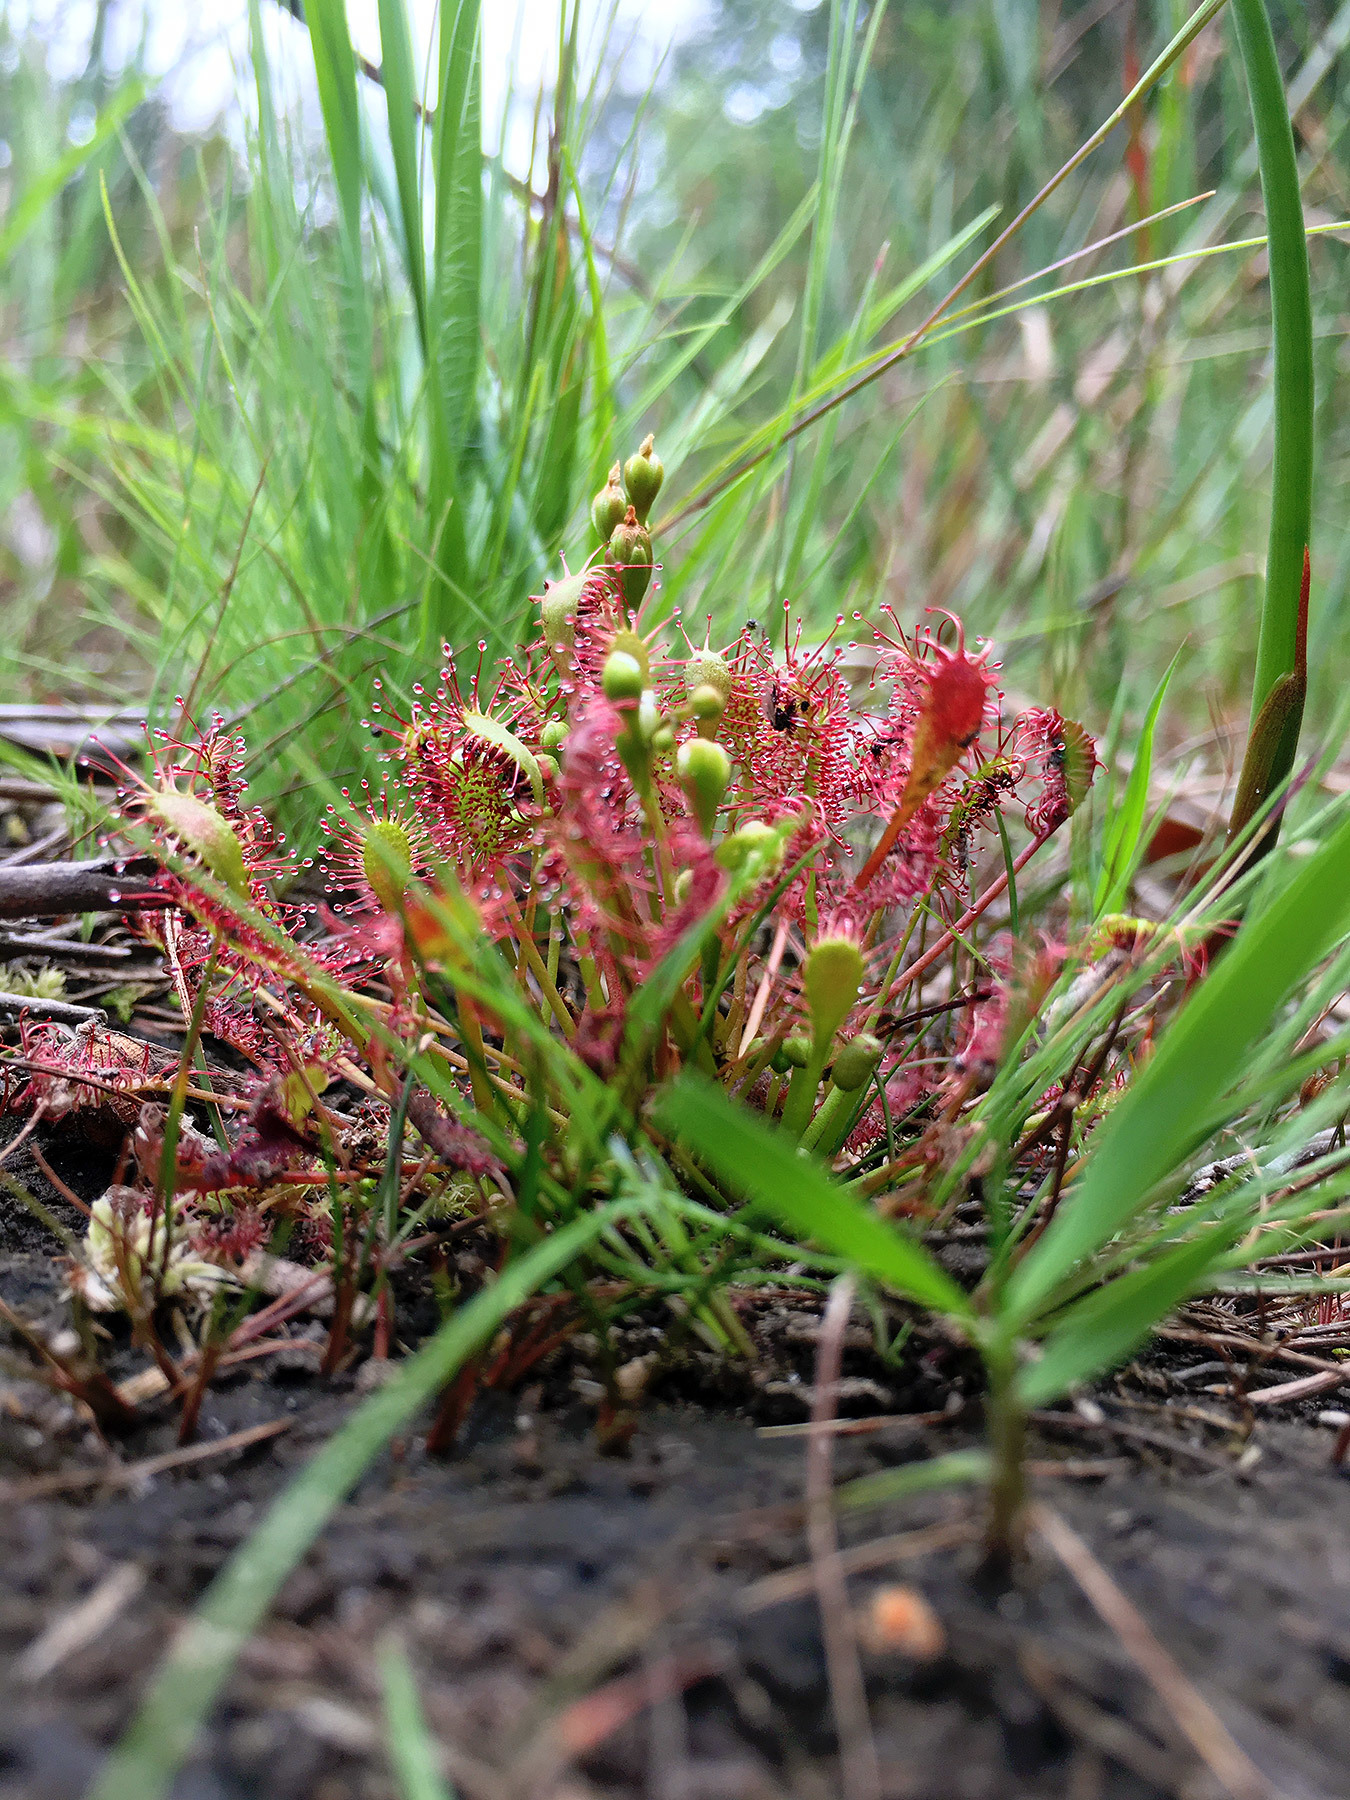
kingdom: Plantae
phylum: Tracheophyta
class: Magnoliopsida
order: Caryophyllales
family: Droseraceae
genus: Drosera
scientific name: Drosera intermedia
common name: Oblong-leaved sundew
